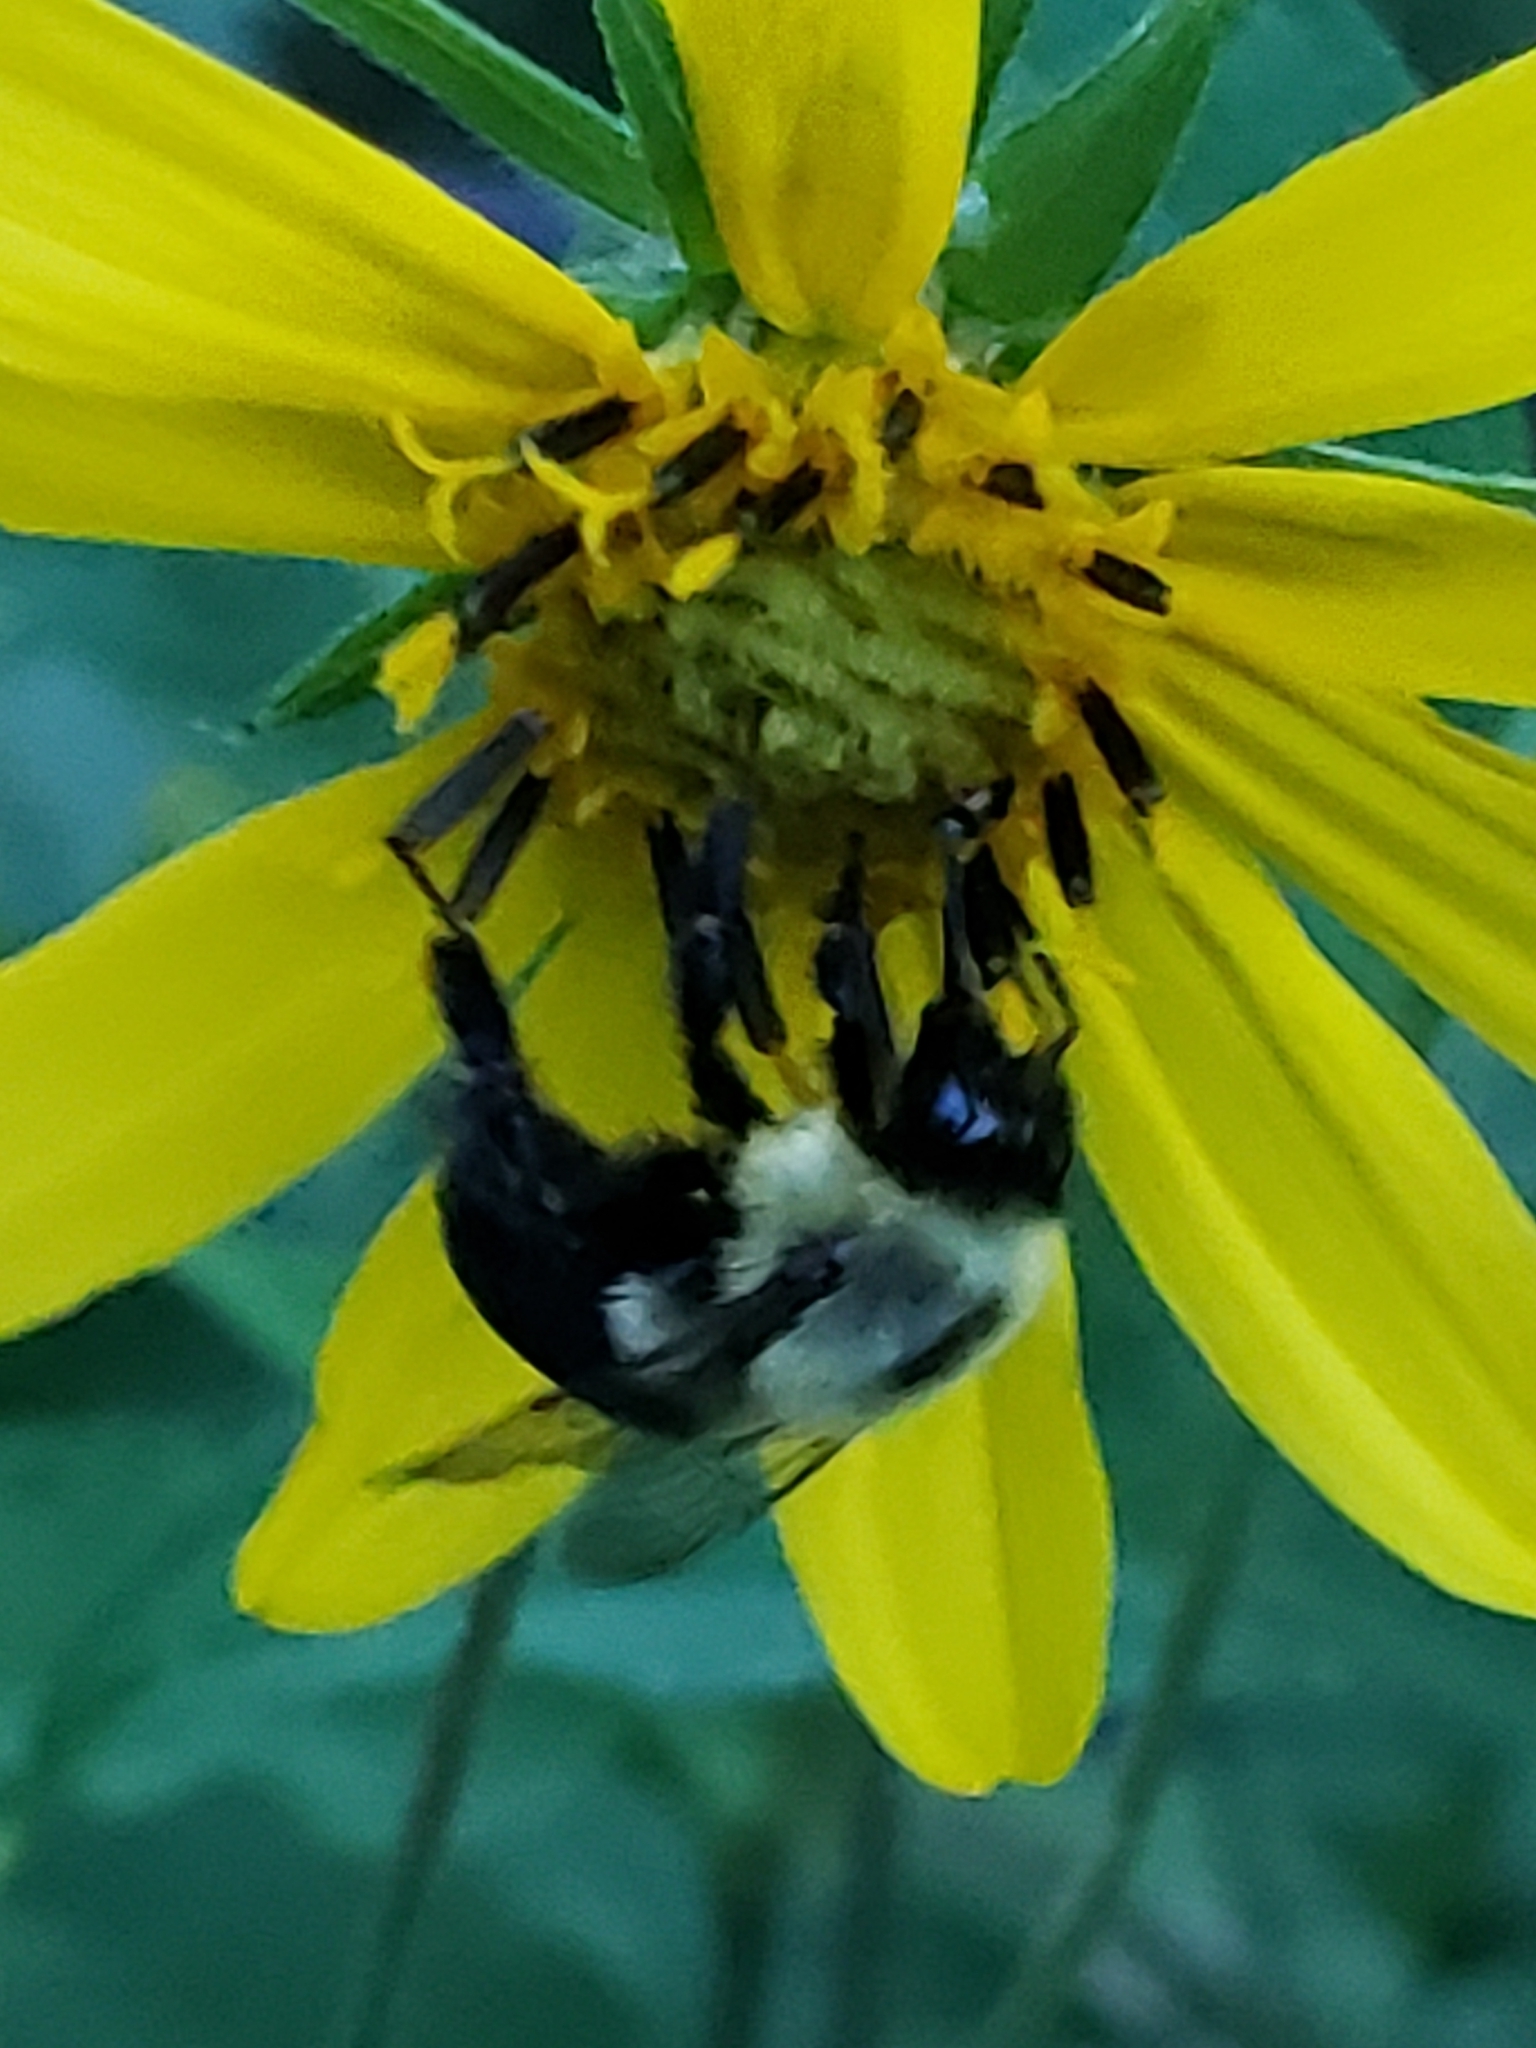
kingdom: Animalia
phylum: Arthropoda
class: Insecta
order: Hymenoptera
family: Apidae
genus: Bombus
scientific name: Bombus impatiens
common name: Common eastern bumble bee
